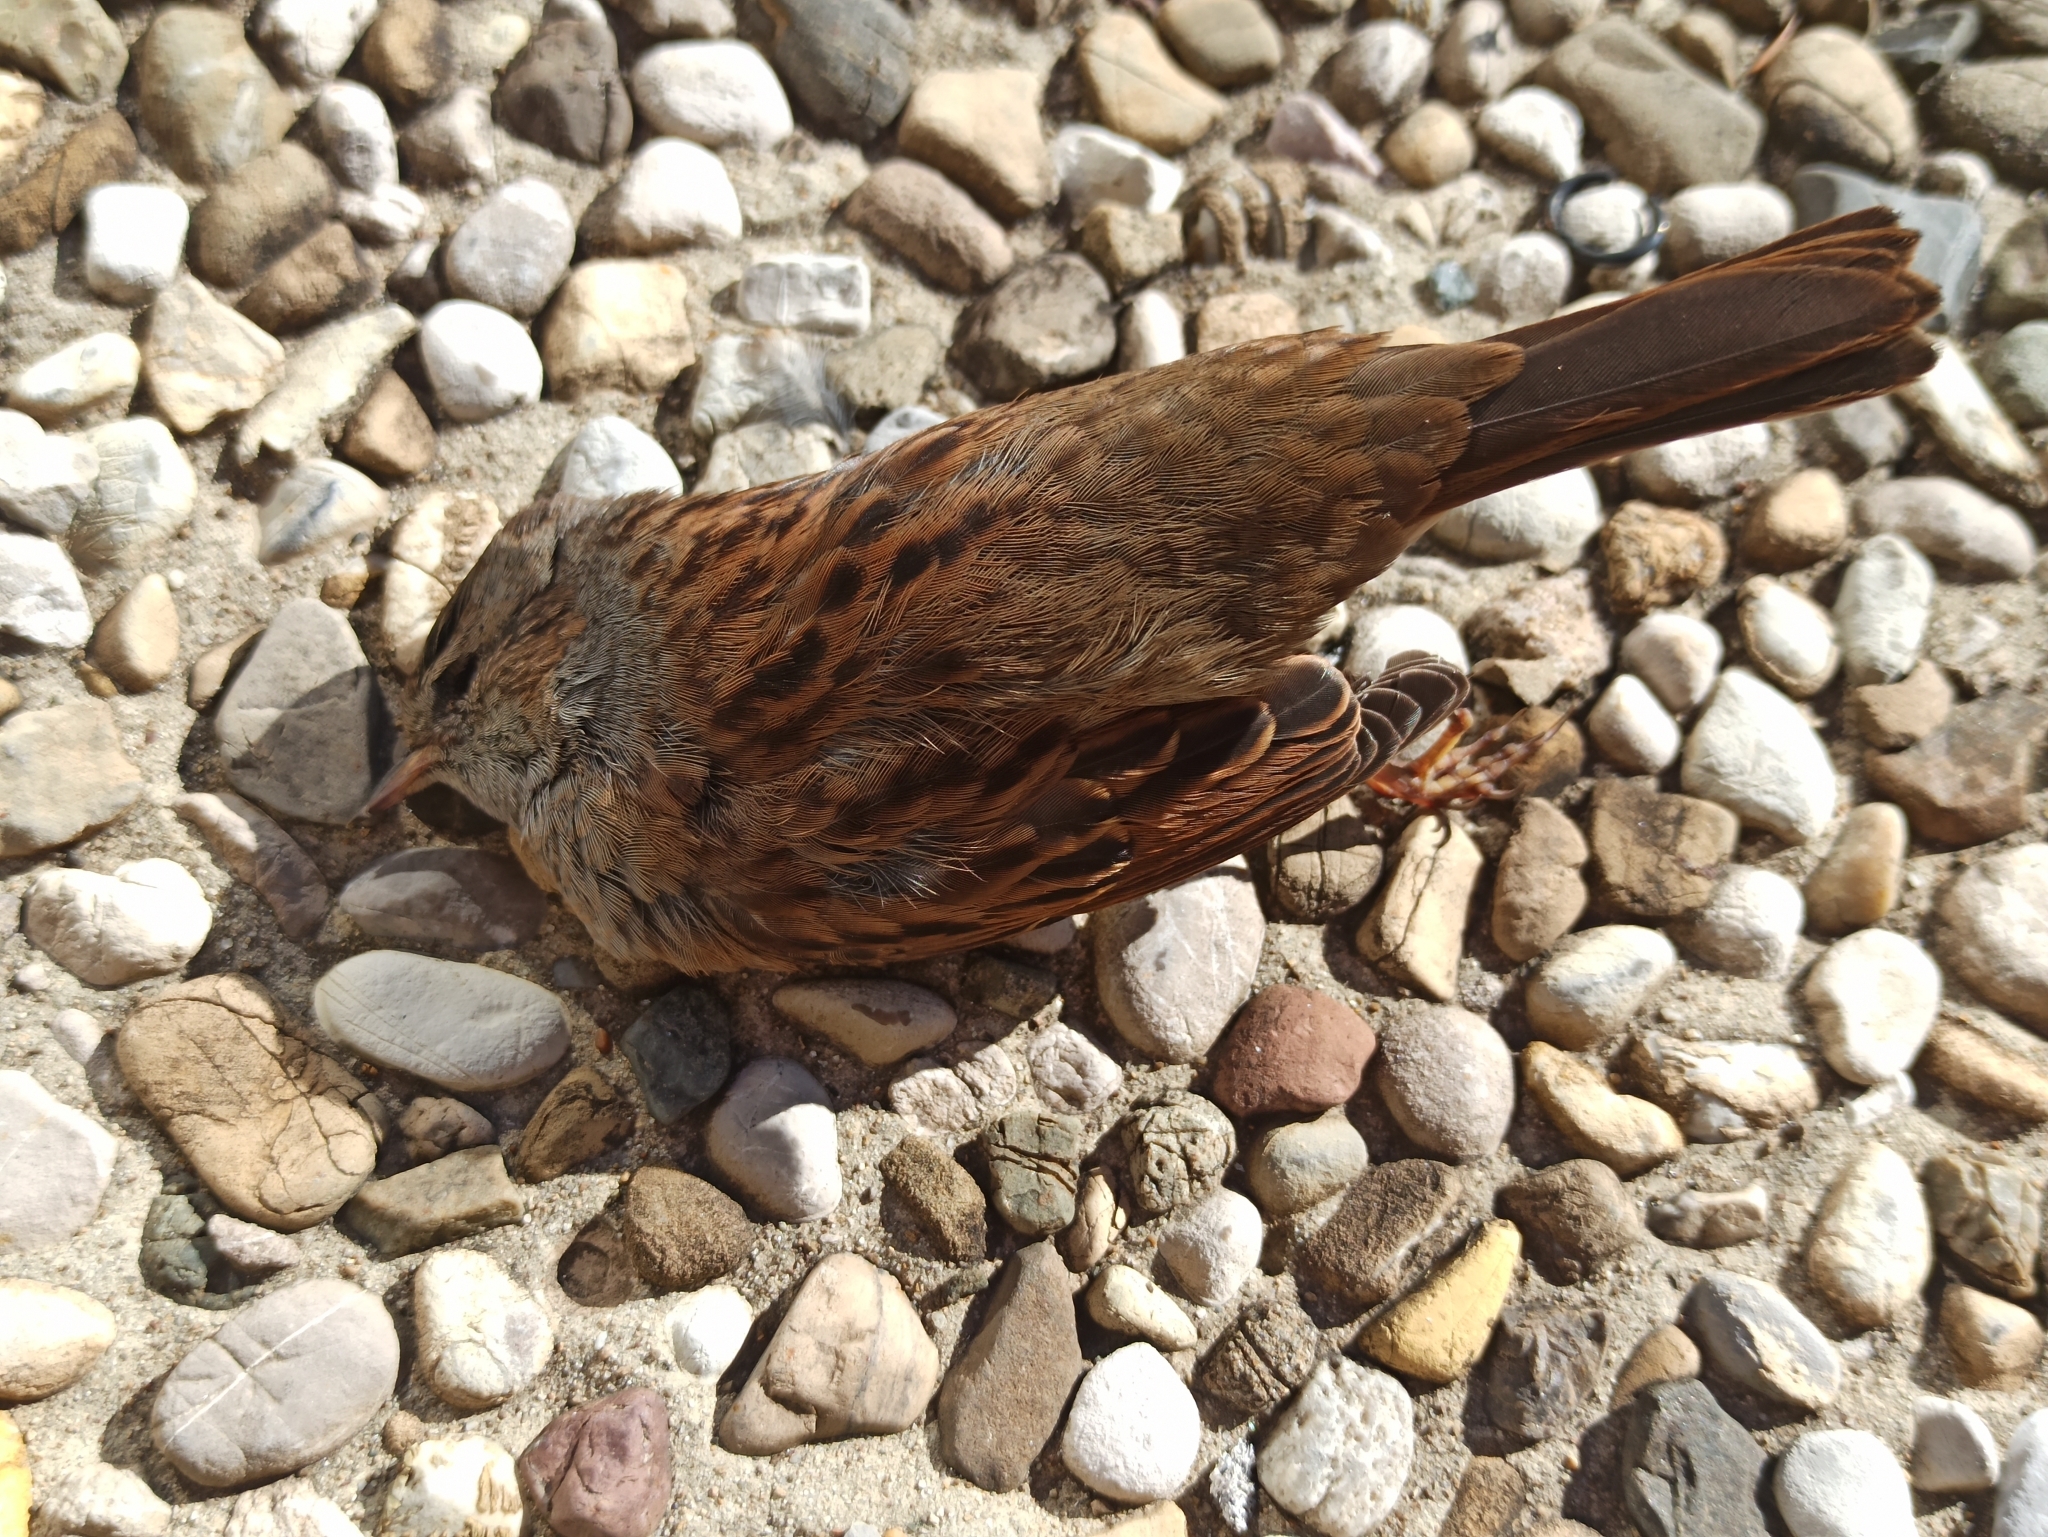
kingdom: Animalia
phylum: Chordata
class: Aves
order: Passeriformes
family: Prunellidae
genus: Prunella
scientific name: Prunella modularis
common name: Dunnock
